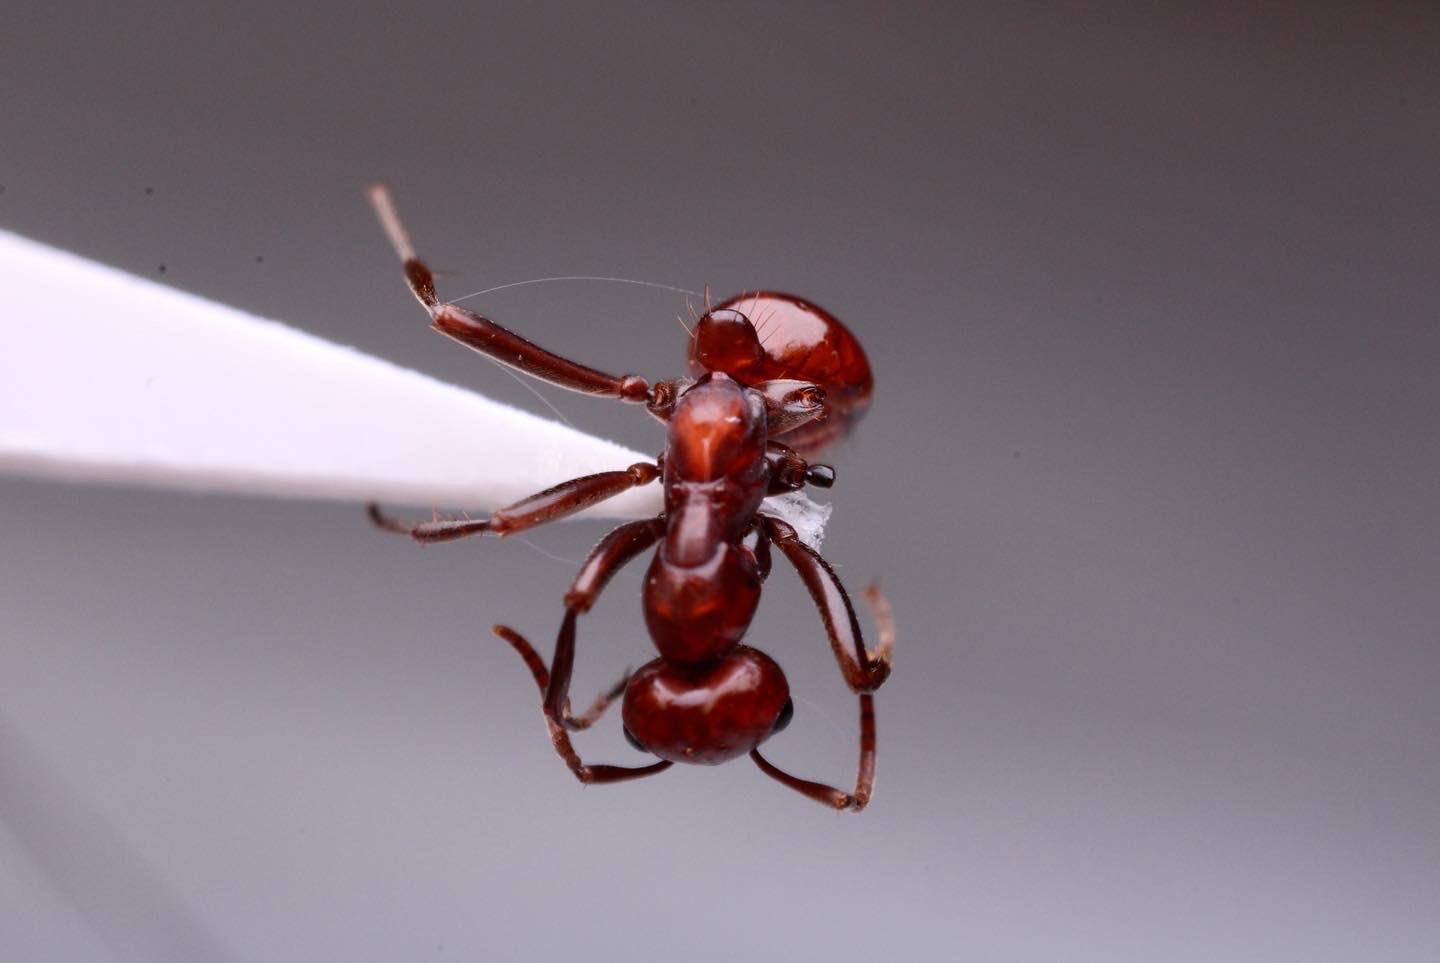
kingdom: Animalia
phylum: Arthropoda
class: Insecta
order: Hymenoptera
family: Formicidae
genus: Polyergus
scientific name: Polyergus lucidus
